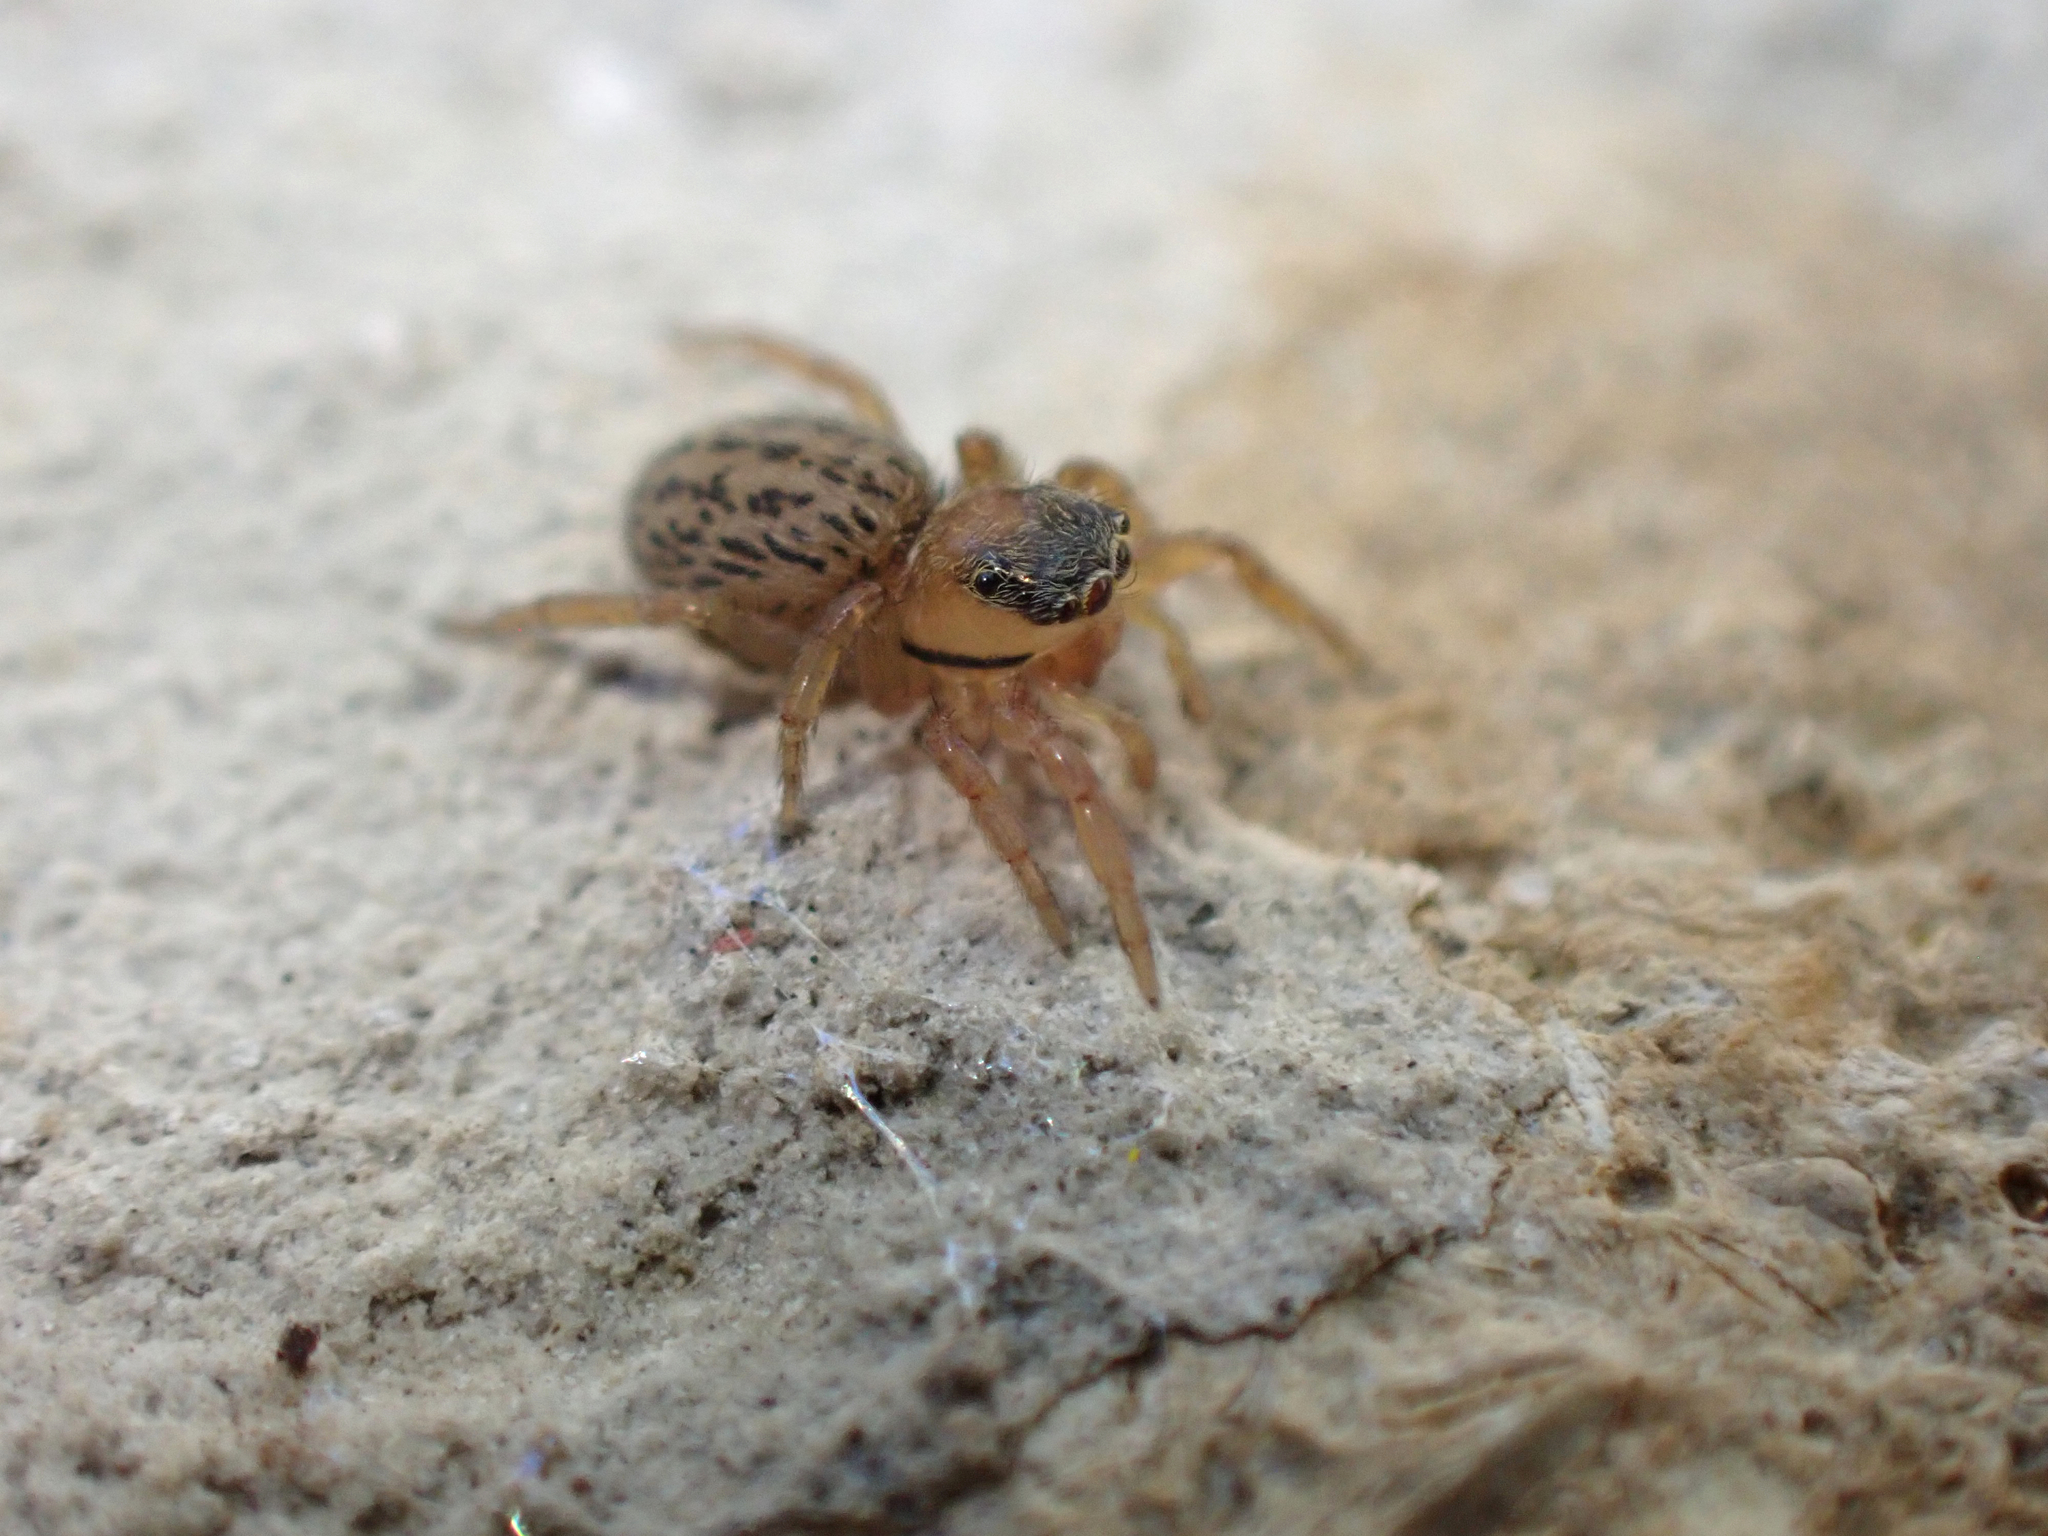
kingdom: Animalia
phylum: Arthropoda
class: Arachnida
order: Araneae
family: Salticidae
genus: Euophrys
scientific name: Euophrys frontalis
